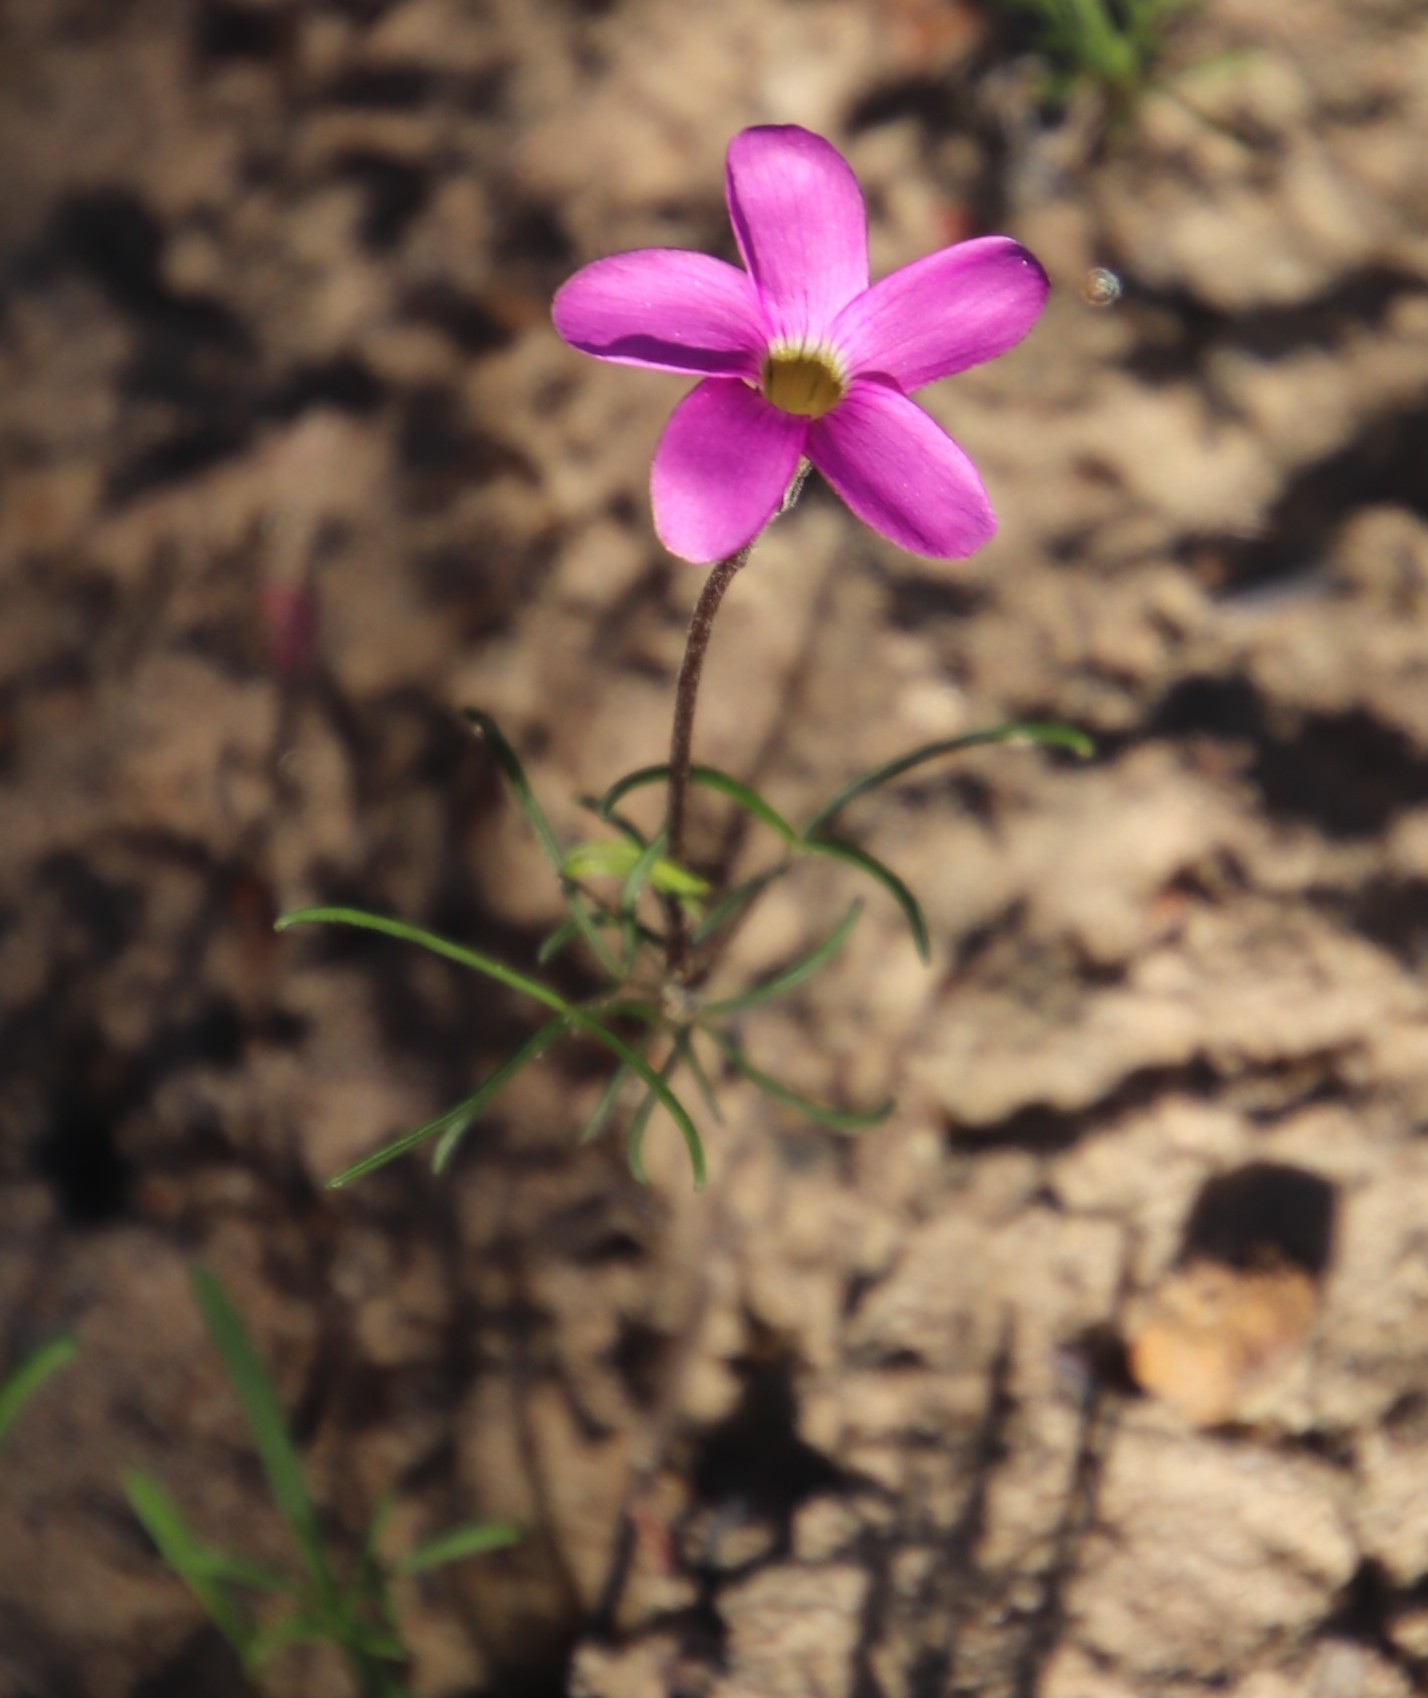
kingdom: Plantae
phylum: Tracheophyta
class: Magnoliopsida
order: Oxalidales
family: Oxalidaceae
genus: Oxalis
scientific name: Oxalis polyphylla
